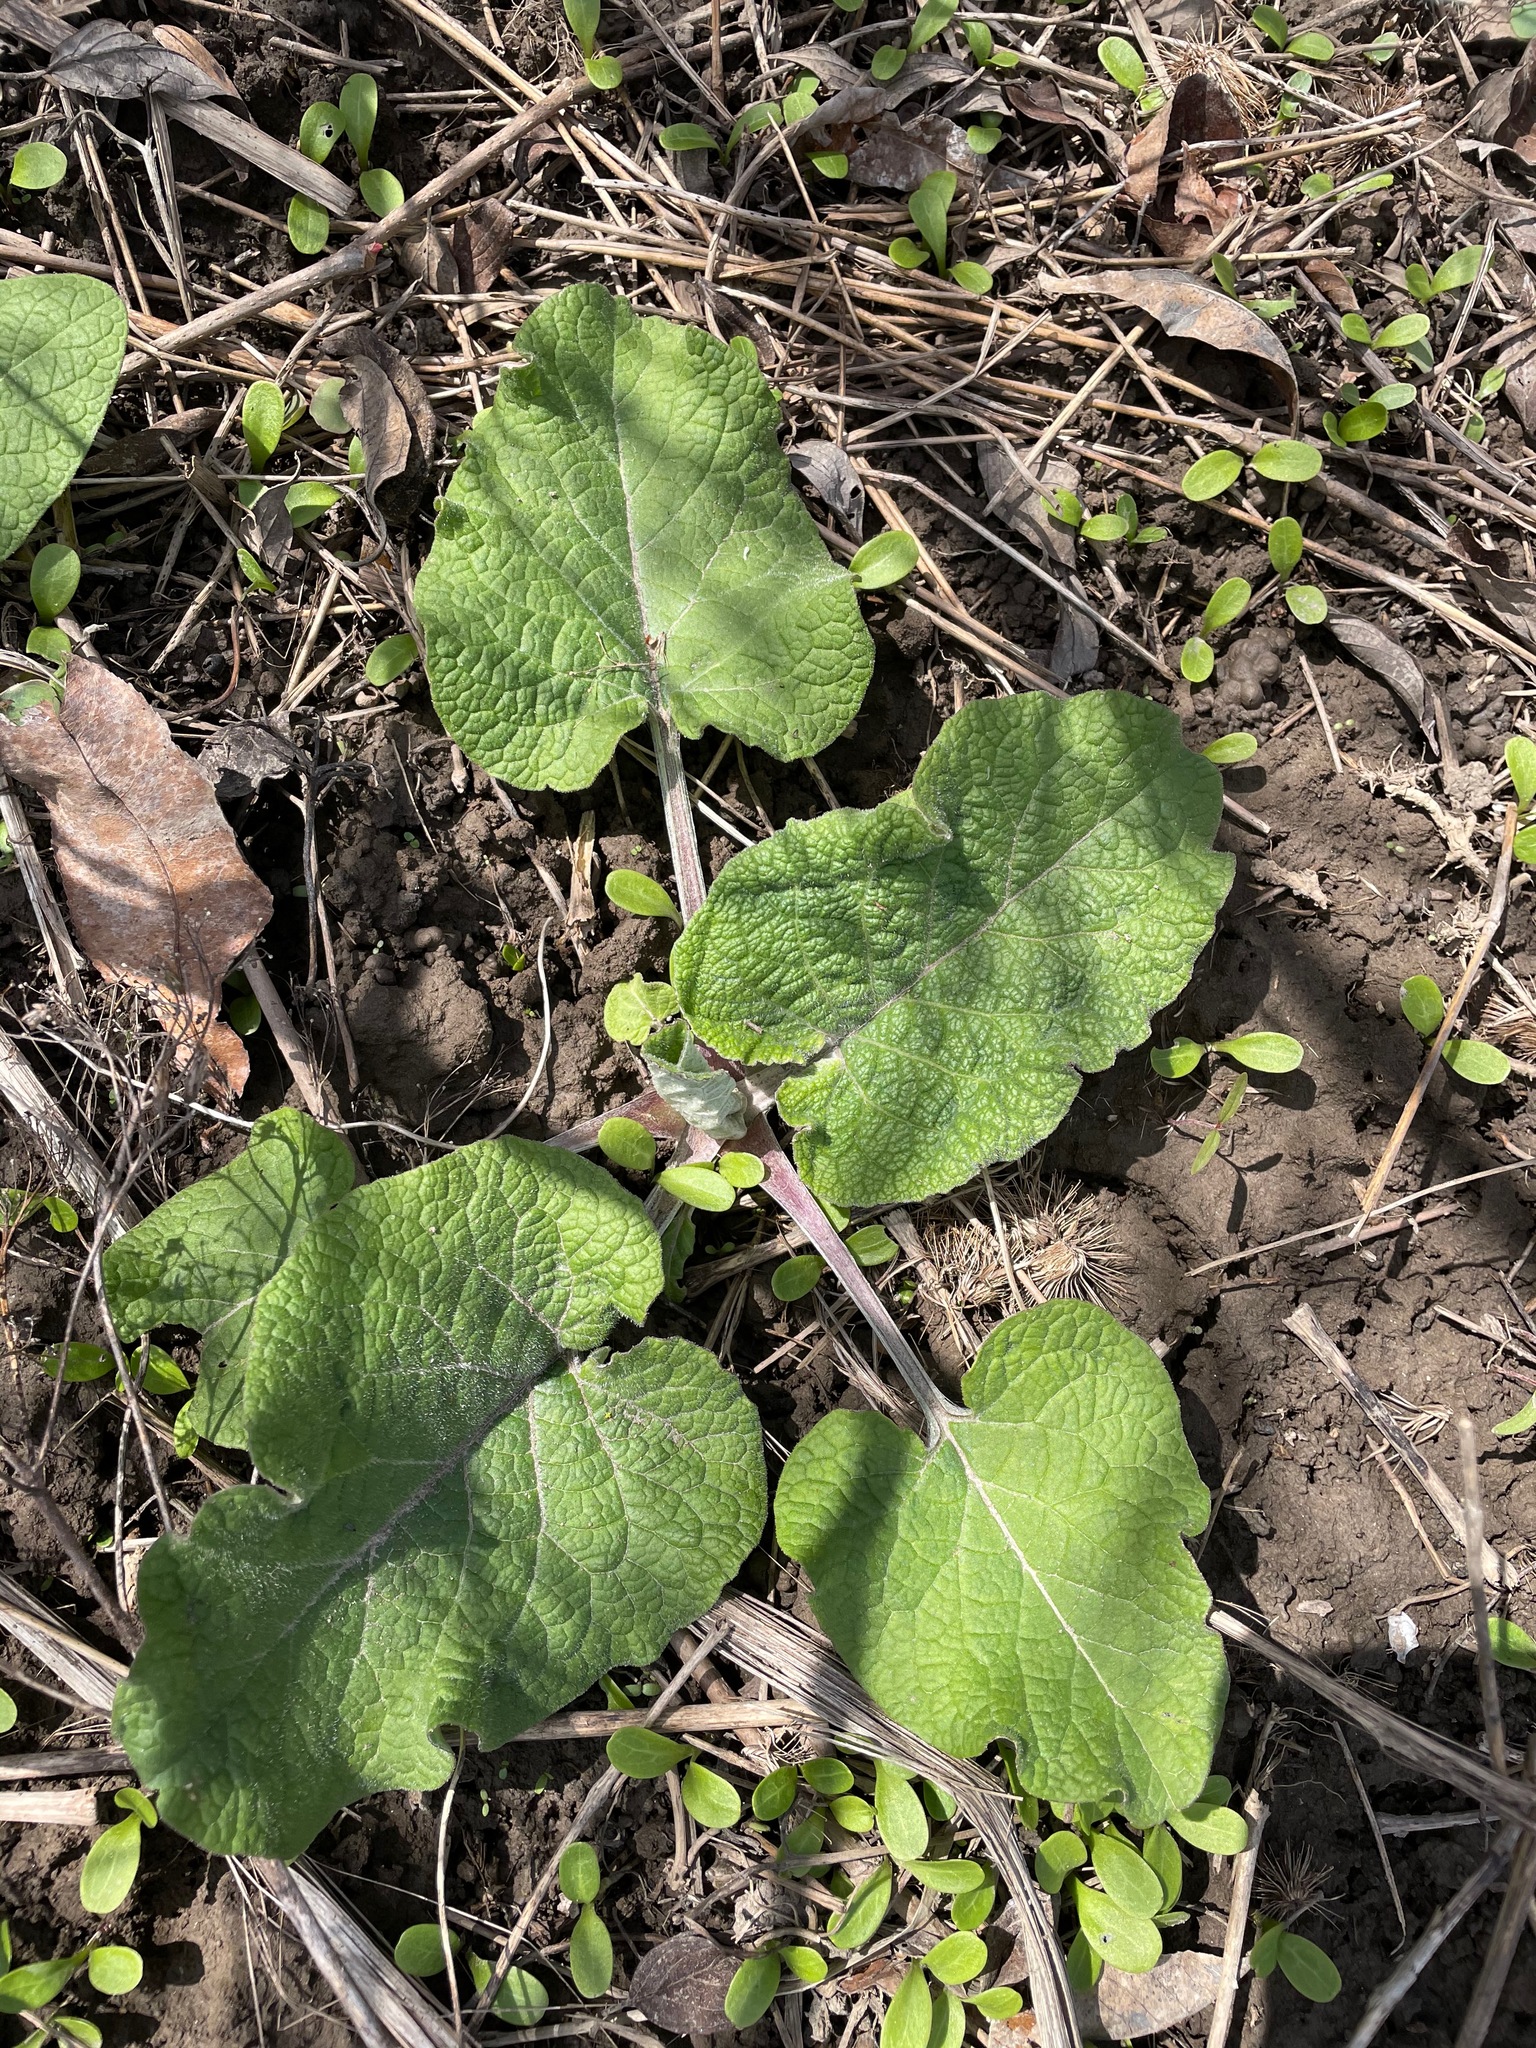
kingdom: Plantae
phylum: Tracheophyta
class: Magnoliopsida
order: Asterales
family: Asteraceae
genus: Arctium
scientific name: Arctium
